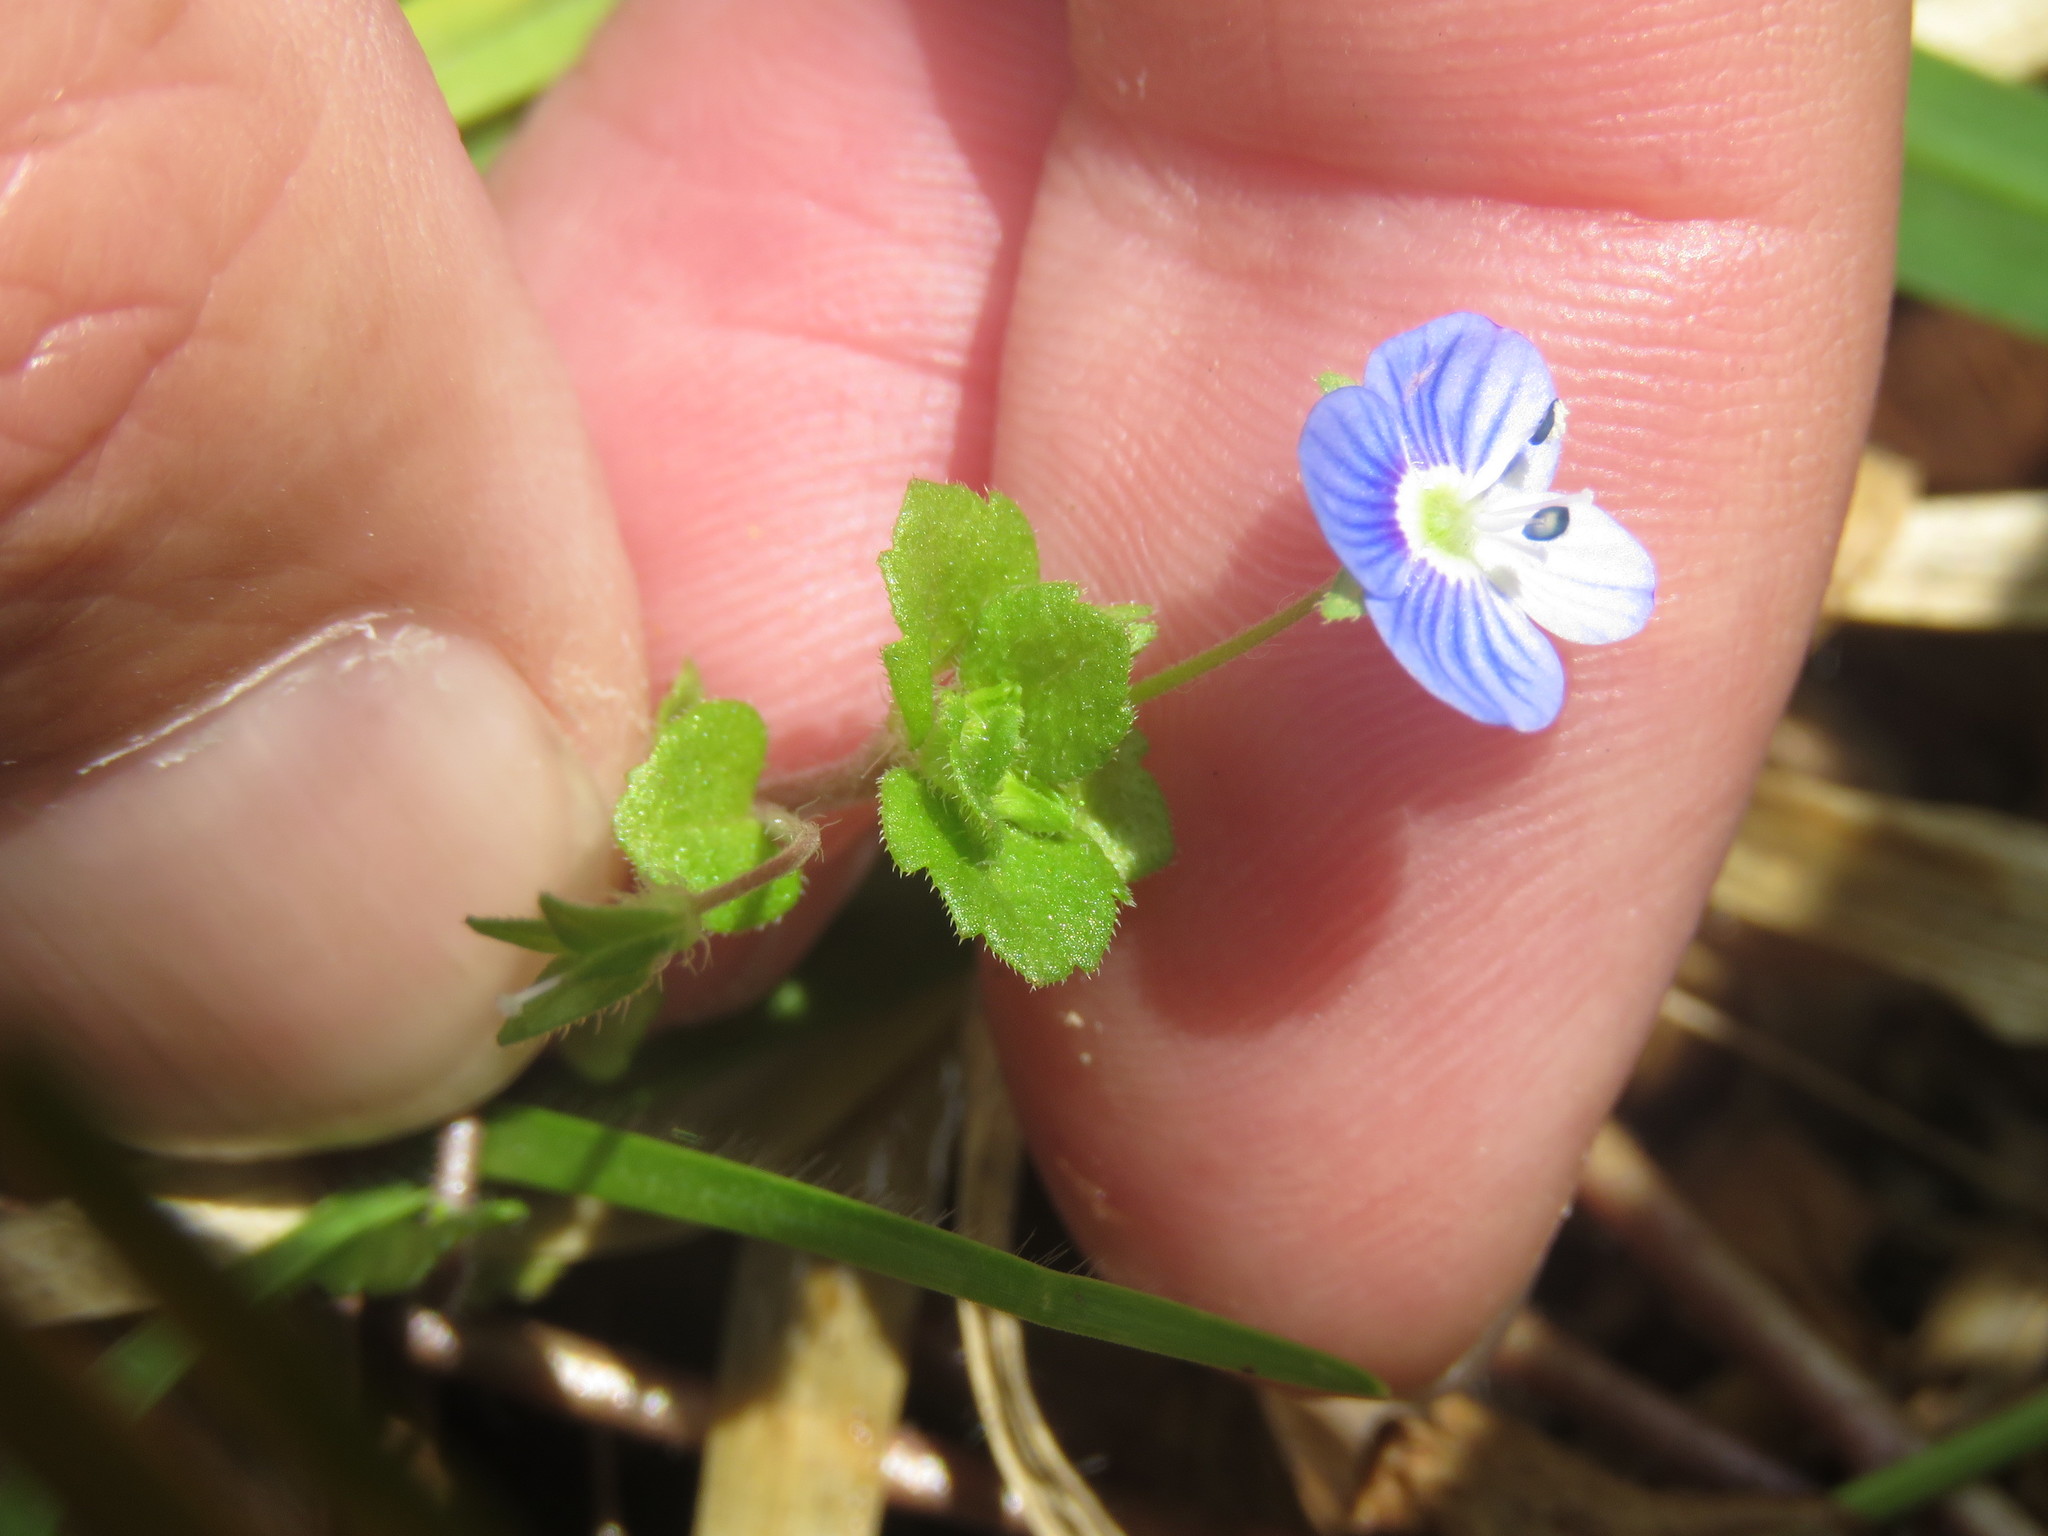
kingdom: Plantae
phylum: Tracheophyta
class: Magnoliopsida
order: Lamiales
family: Plantaginaceae
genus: Veronica
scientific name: Veronica persica
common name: Common field-speedwell
